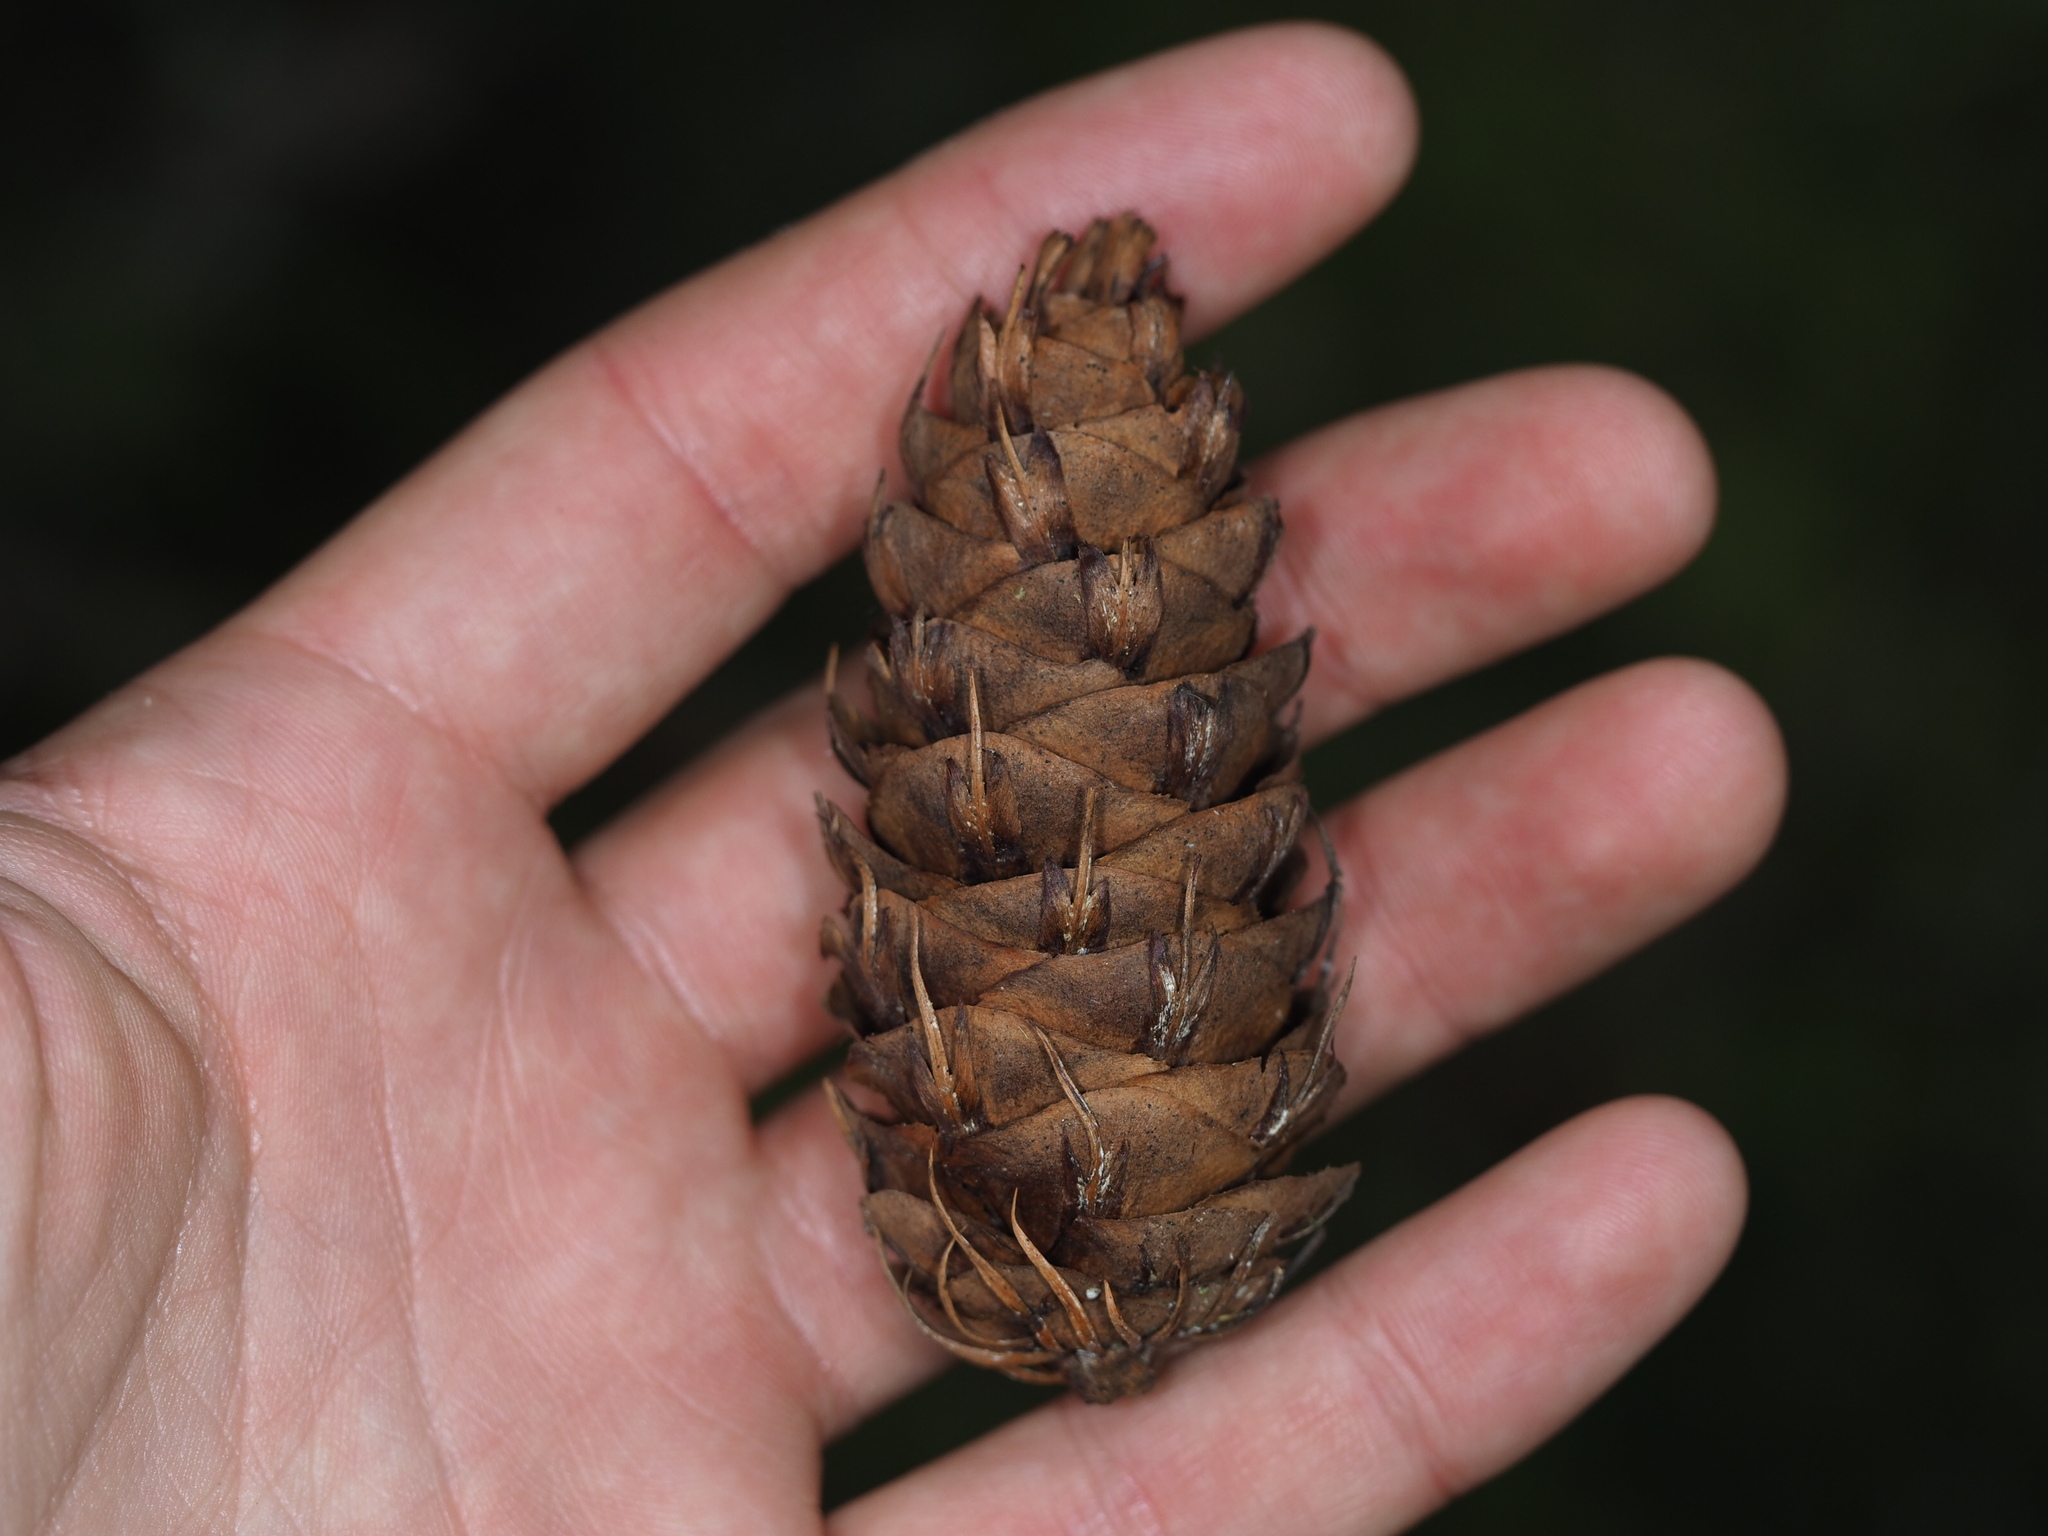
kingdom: Plantae
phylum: Tracheophyta
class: Pinopsida
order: Pinales
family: Pinaceae
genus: Pseudotsuga
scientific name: Pseudotsuga menziesii
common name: Douglas fir
